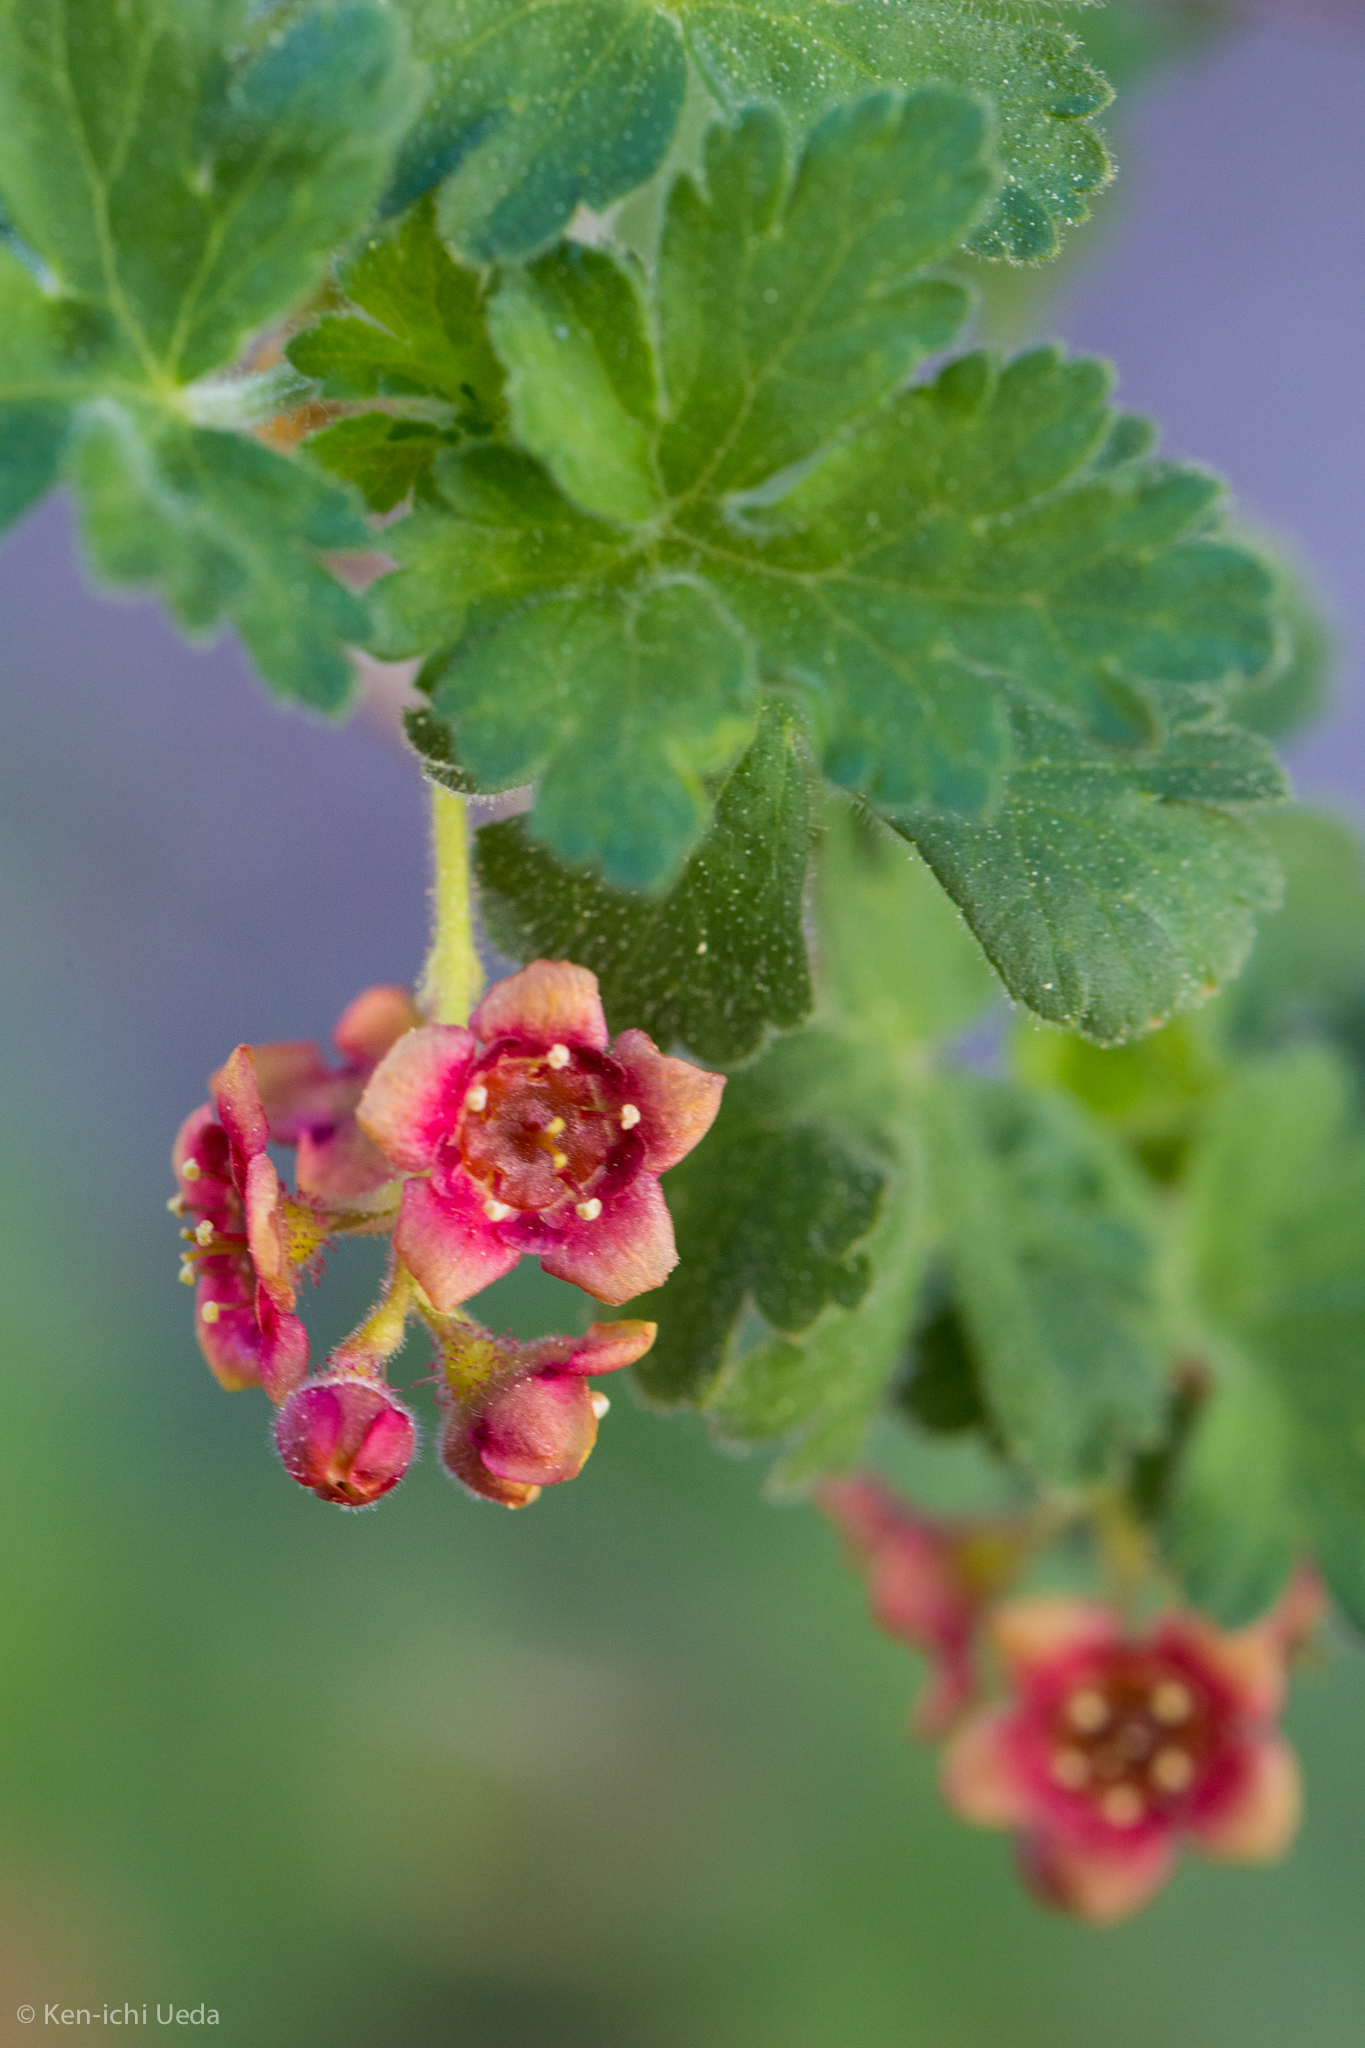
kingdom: Plantae
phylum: Tracheophyta
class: Magnoliopsida
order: Saxifragales
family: Grossulariaceae
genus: Ribes
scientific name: Ribes montigenum
